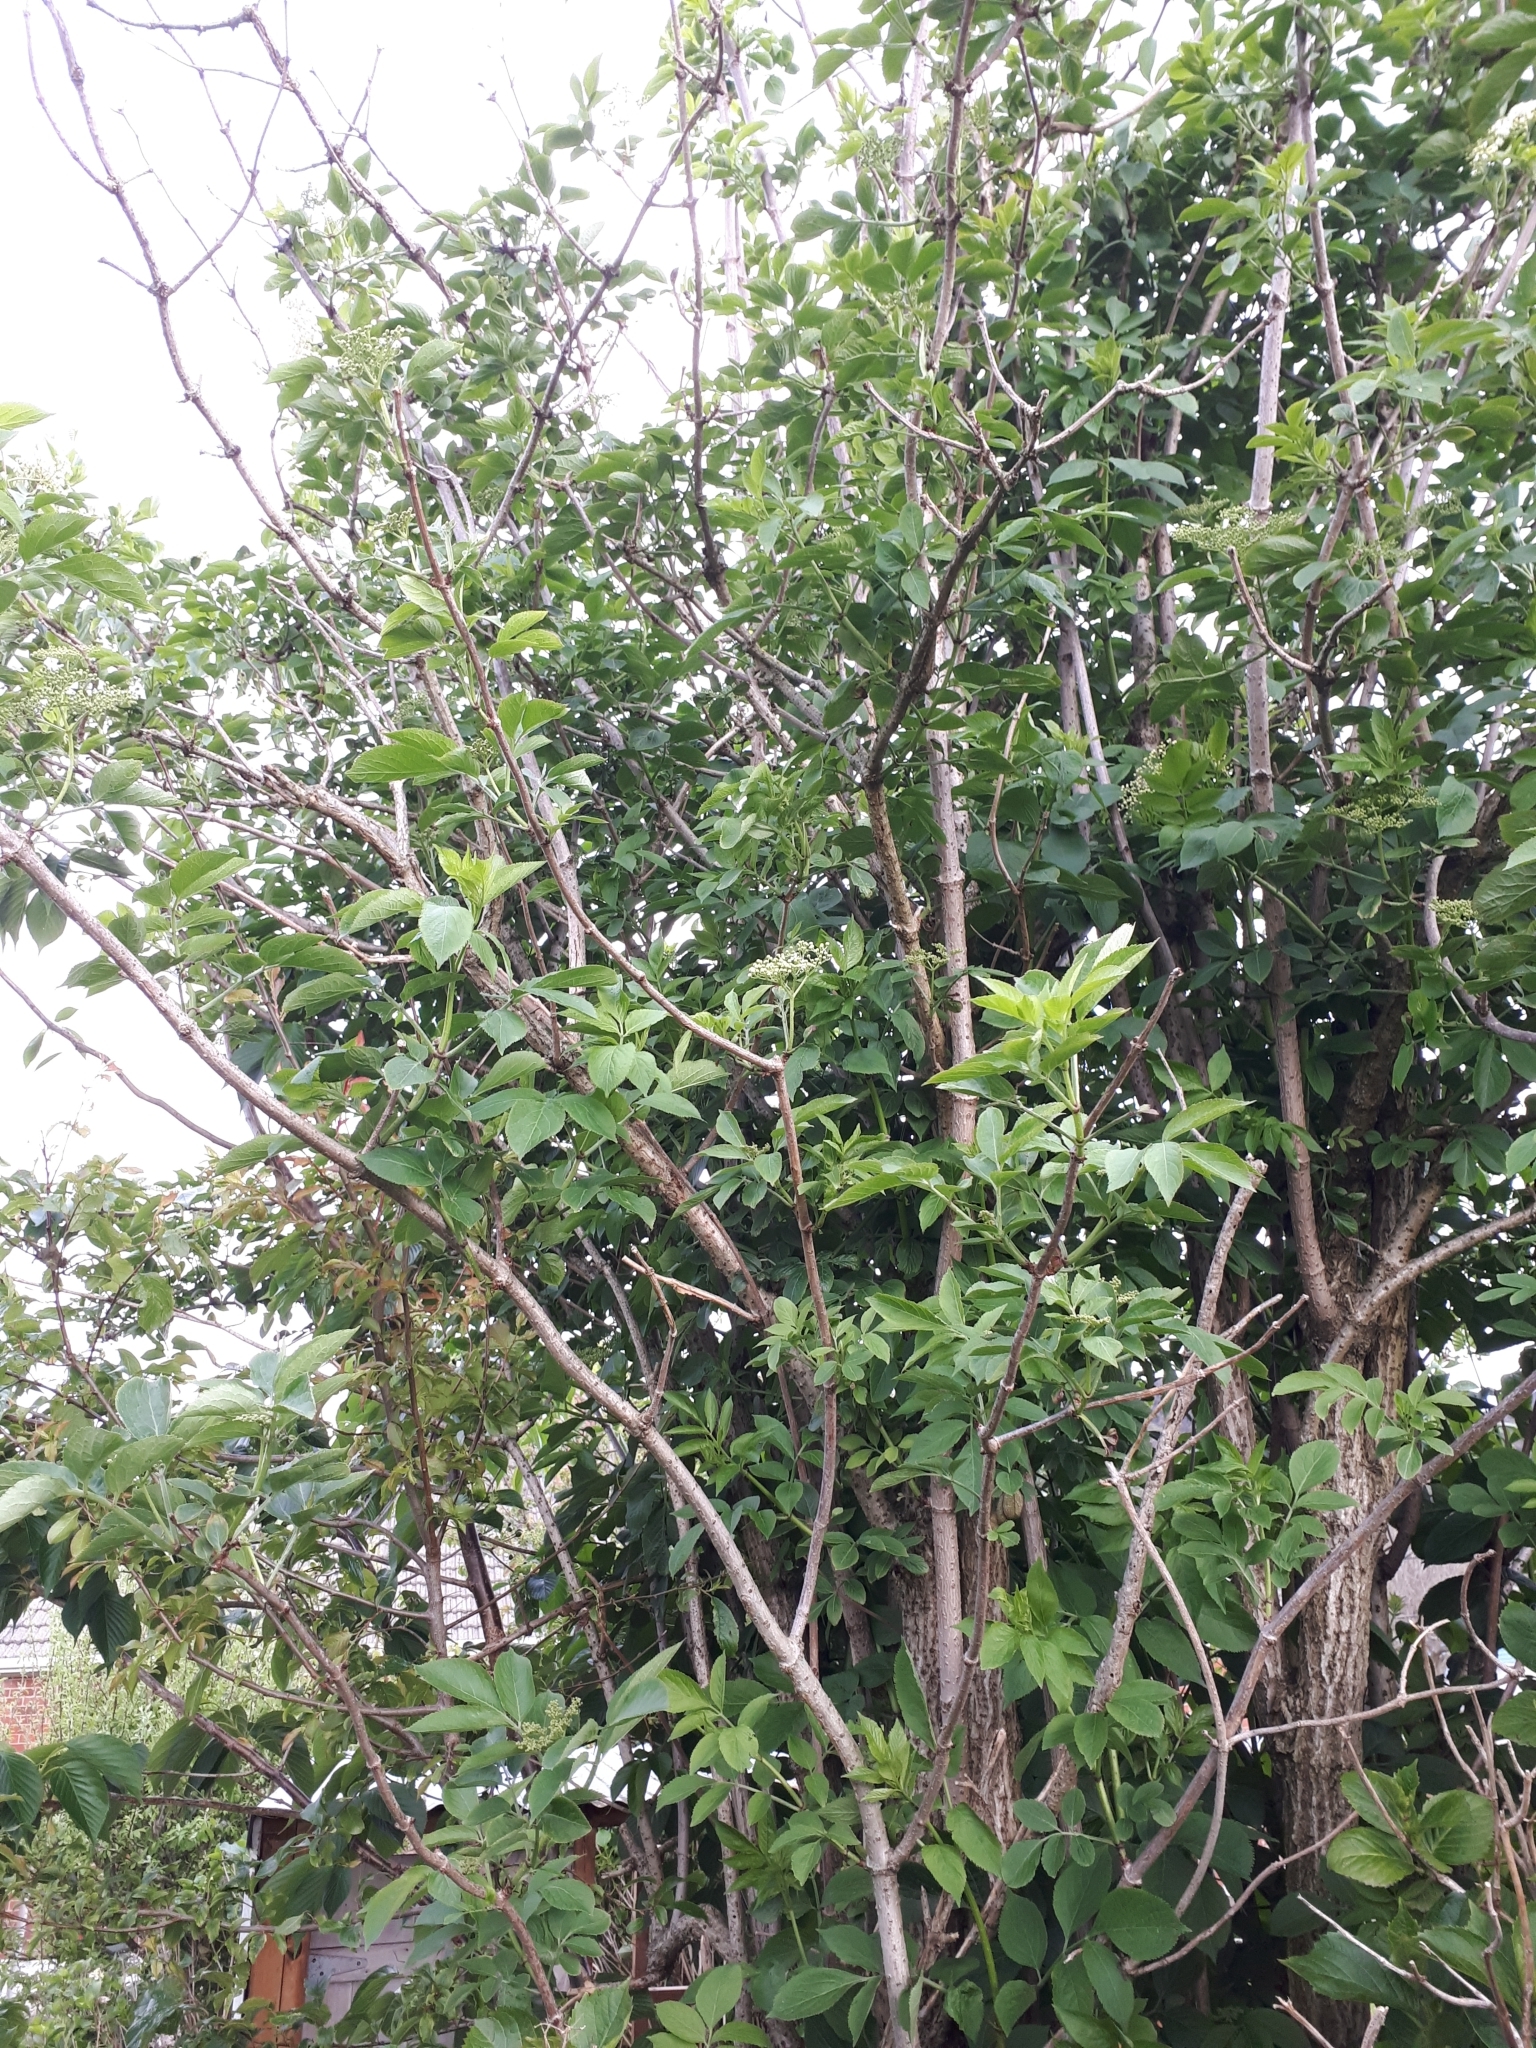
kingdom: Plantae
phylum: Tracheophyta
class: Magnoliopsida
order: Dipsacales
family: Viburnaceae
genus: Sambucus
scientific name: Sambucus nigra
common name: Elder
